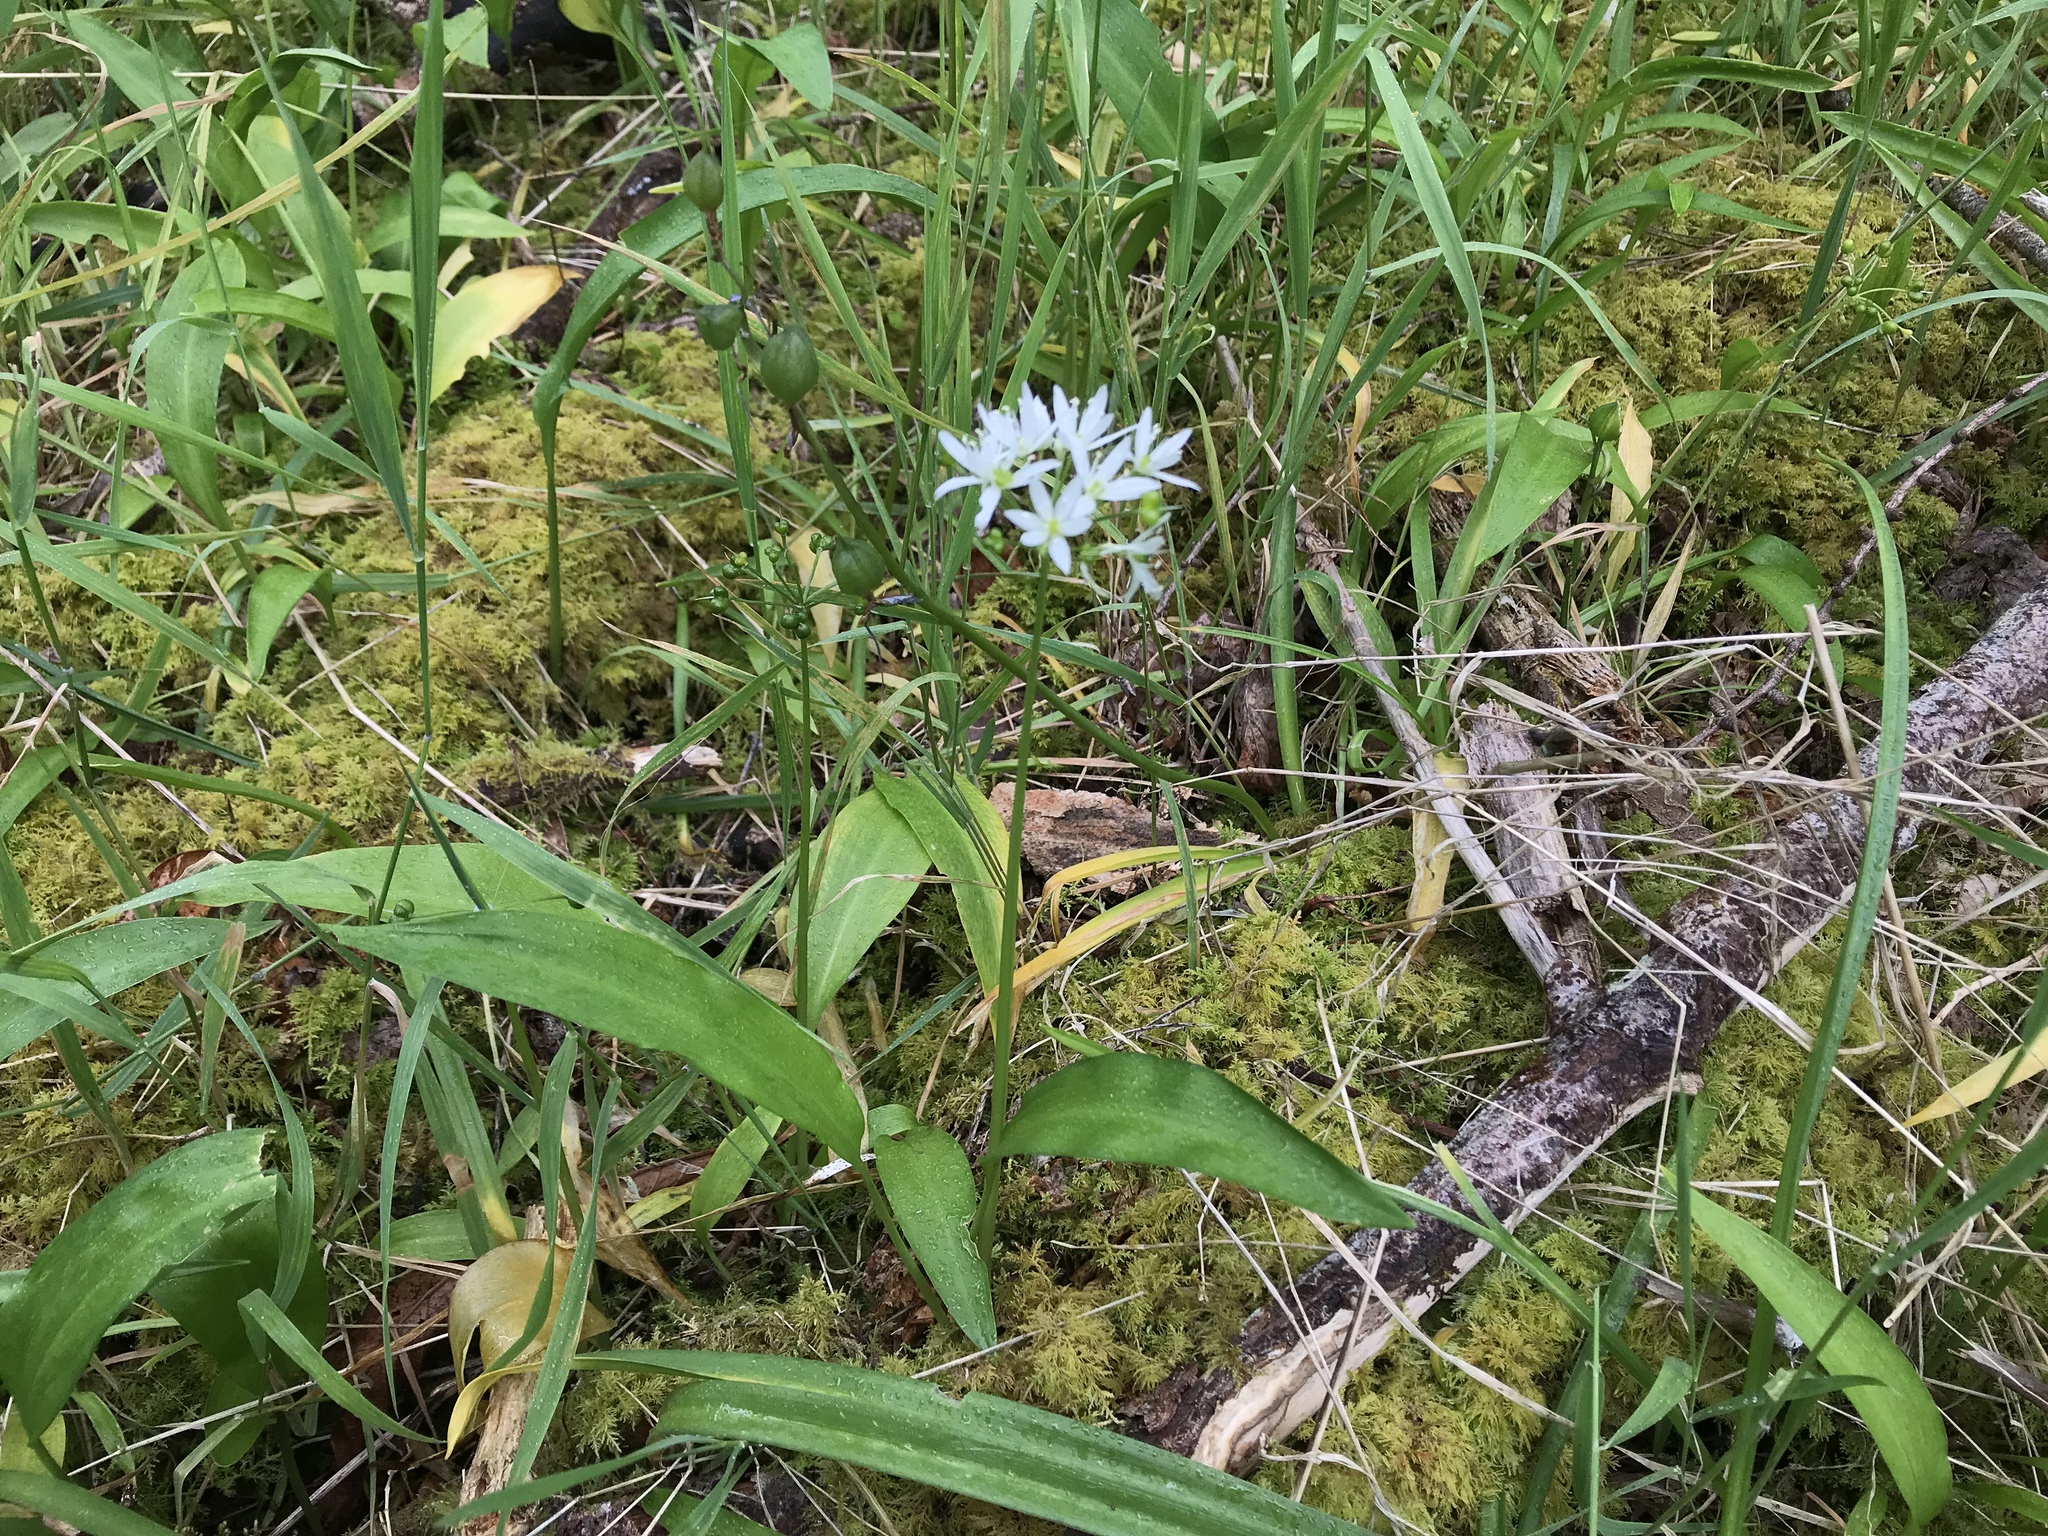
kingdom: Plantae
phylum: Tracheophyta
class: Liliopsida
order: Asparagales
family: Amaryllidaceae
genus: Allium
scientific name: Allium ursinum
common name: Ramsons
